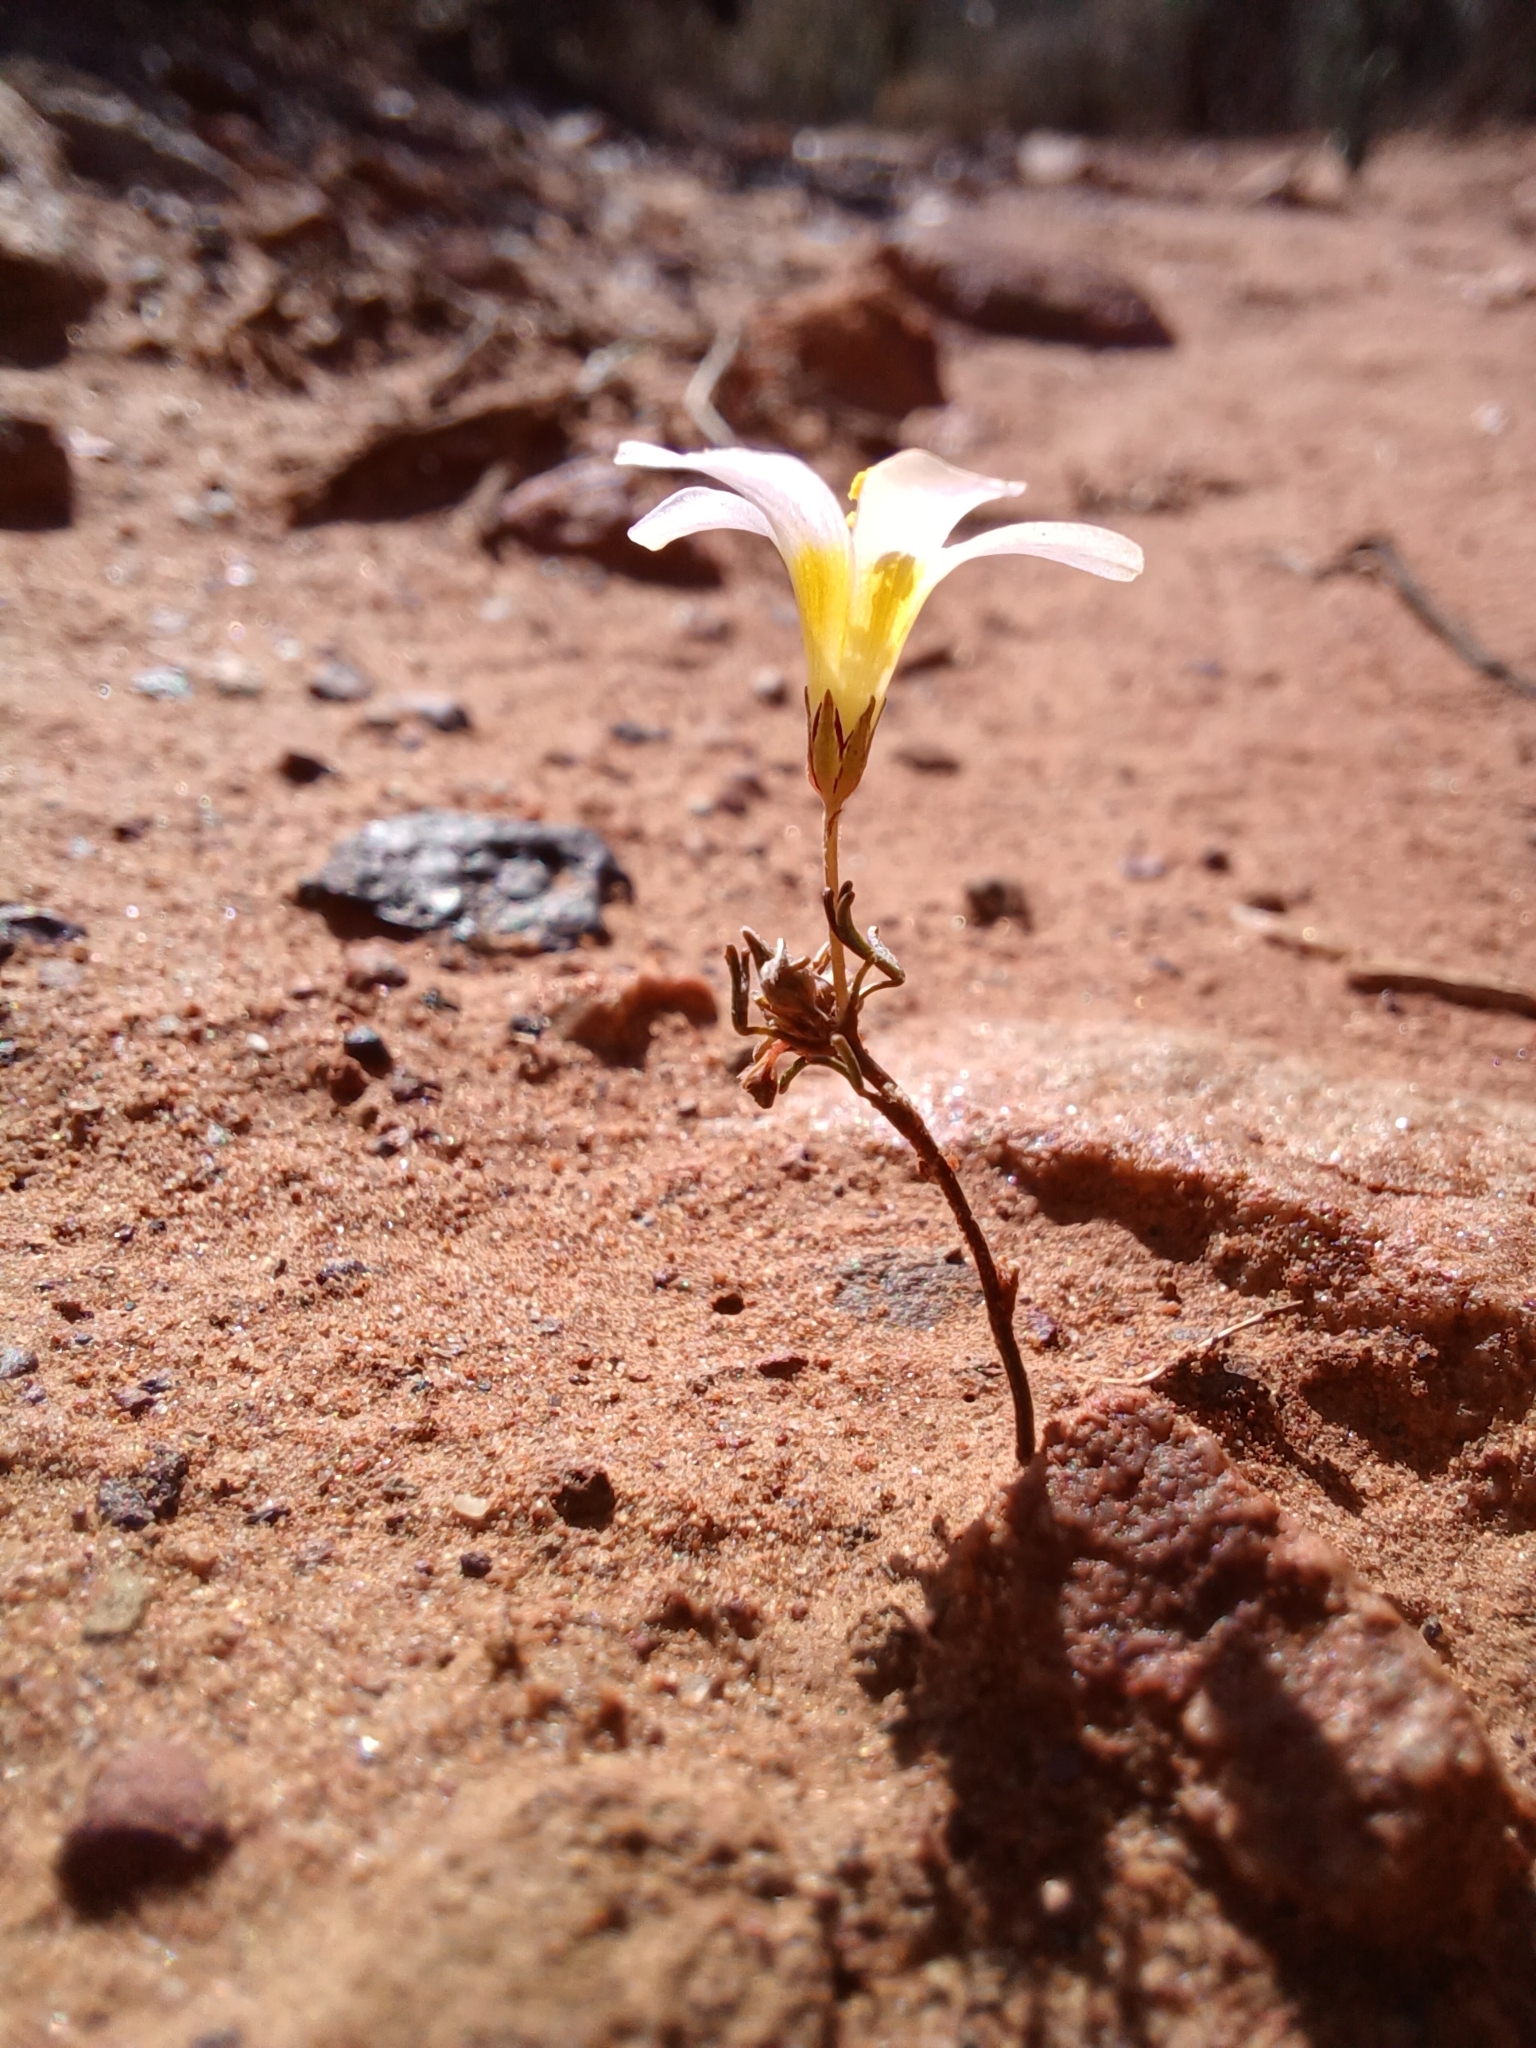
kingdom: Plantae
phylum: Tracheophyta
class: Magnoliopsida
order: Oxalidales
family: Oxalidaceae
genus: Oxalis
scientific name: Oxalis burkei
